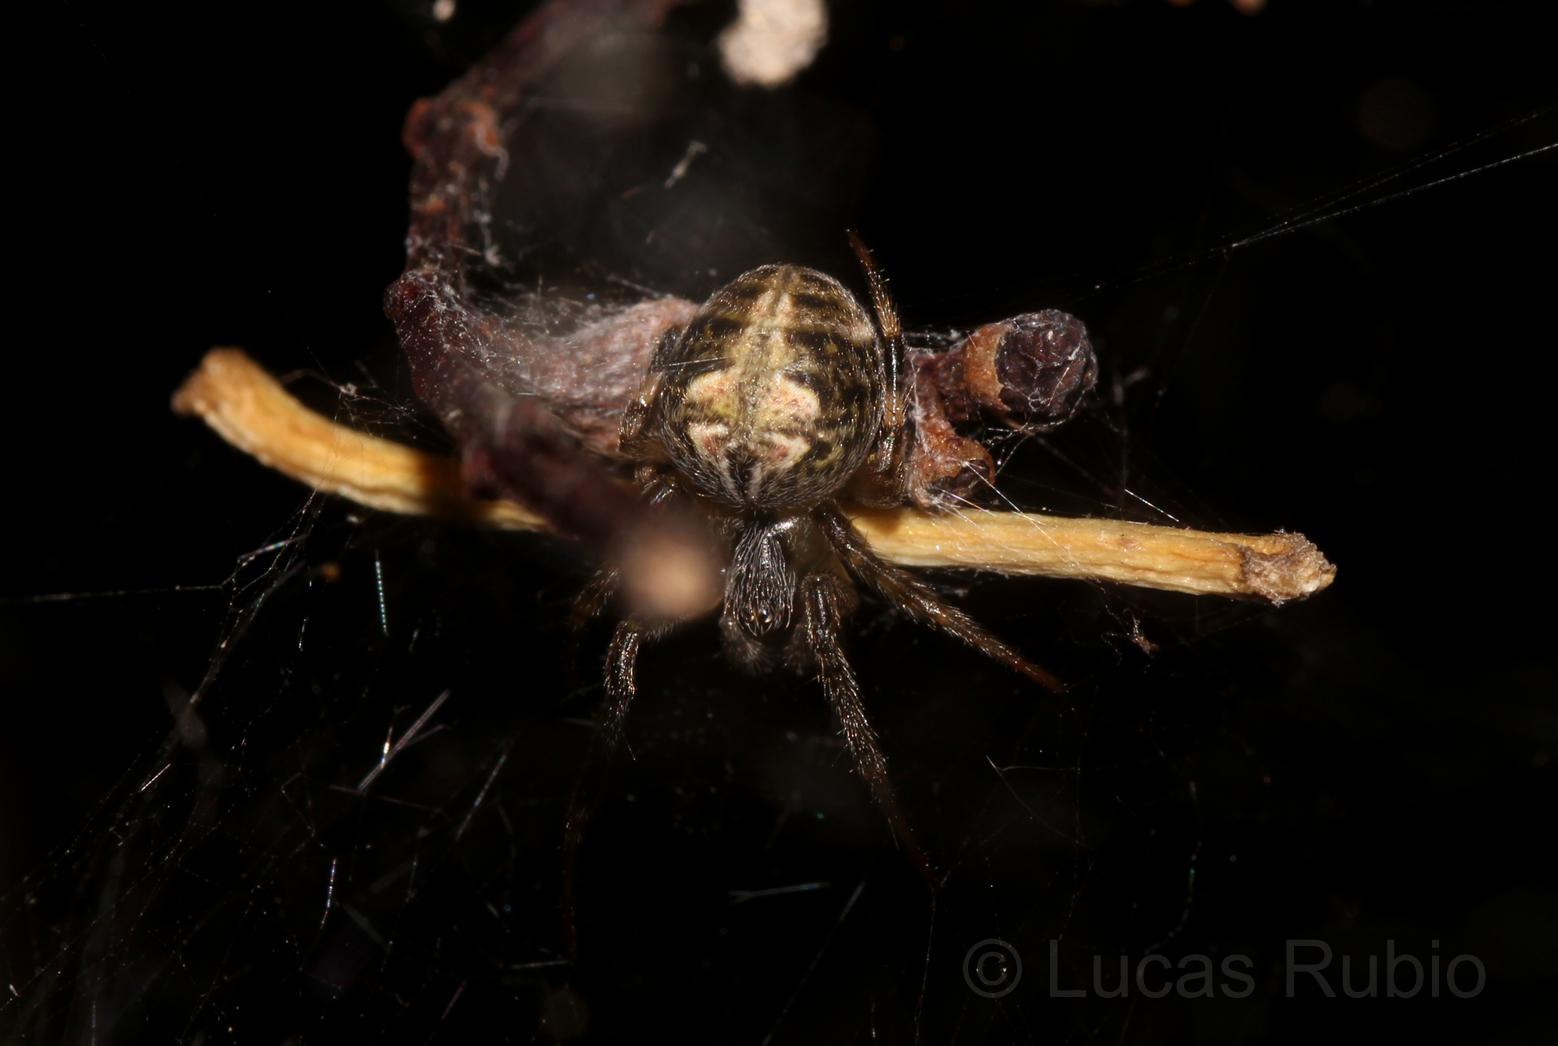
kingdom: Animalia
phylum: Arthropoda
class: Arachnida
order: Araneae
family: Araneidae
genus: Araneus
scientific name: Araneus omnicolor
